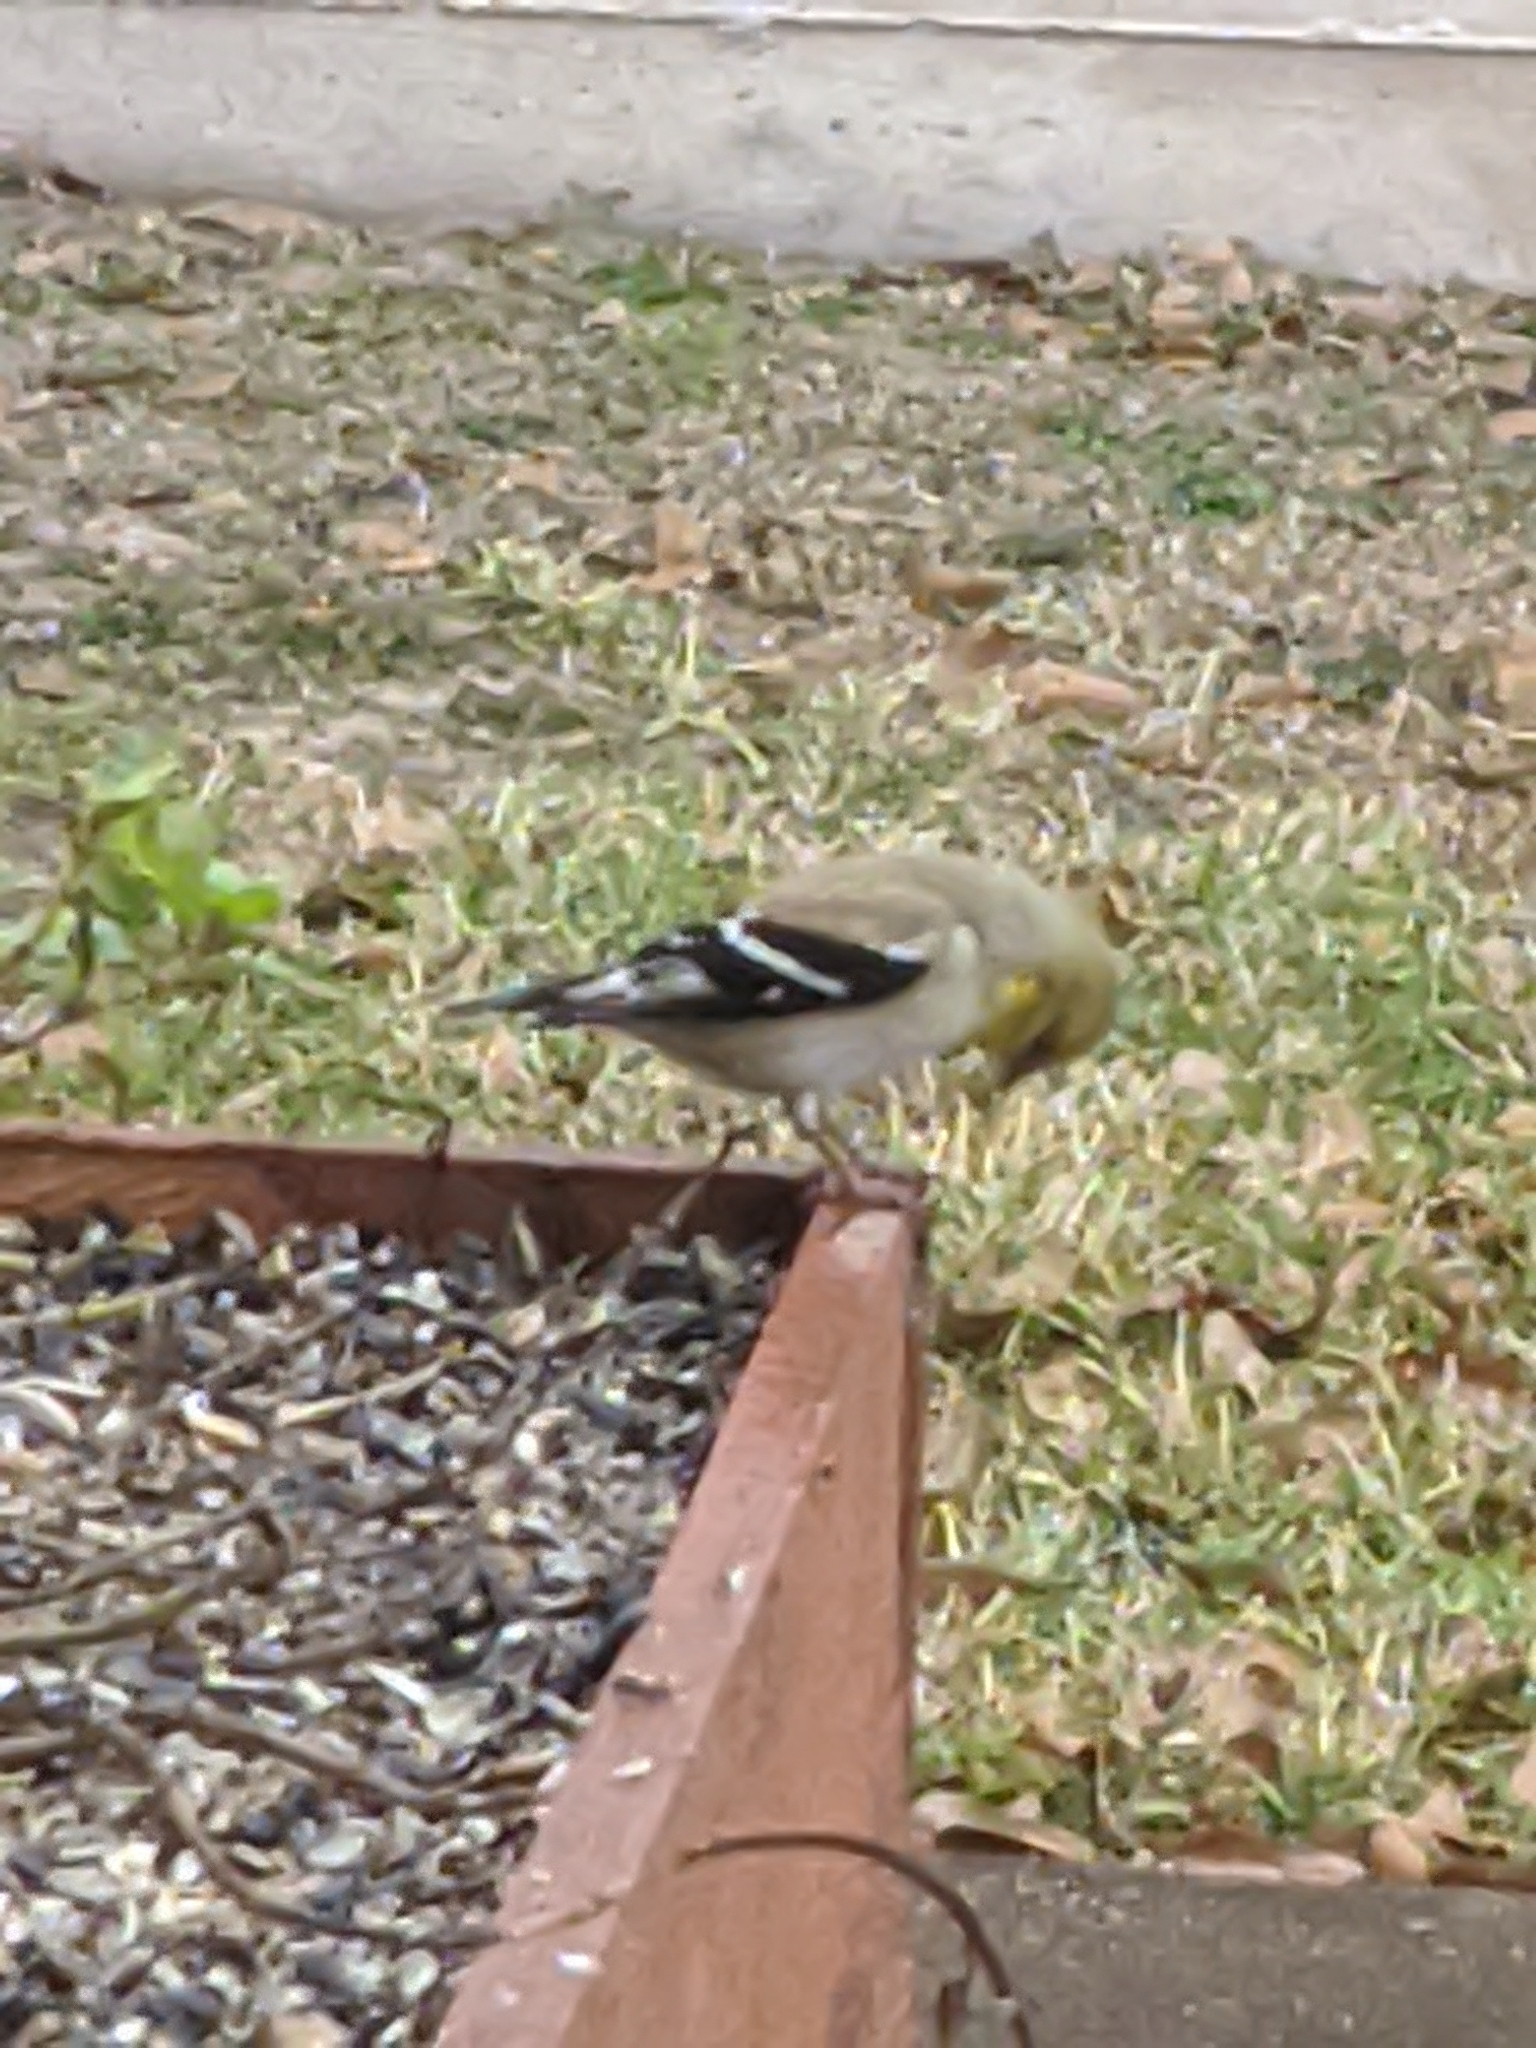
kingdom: Animalia
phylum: Chordata
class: Aves
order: Passeriformes
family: Fringillidae
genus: Spinus
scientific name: Spinus tristis
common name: American goldfinch
